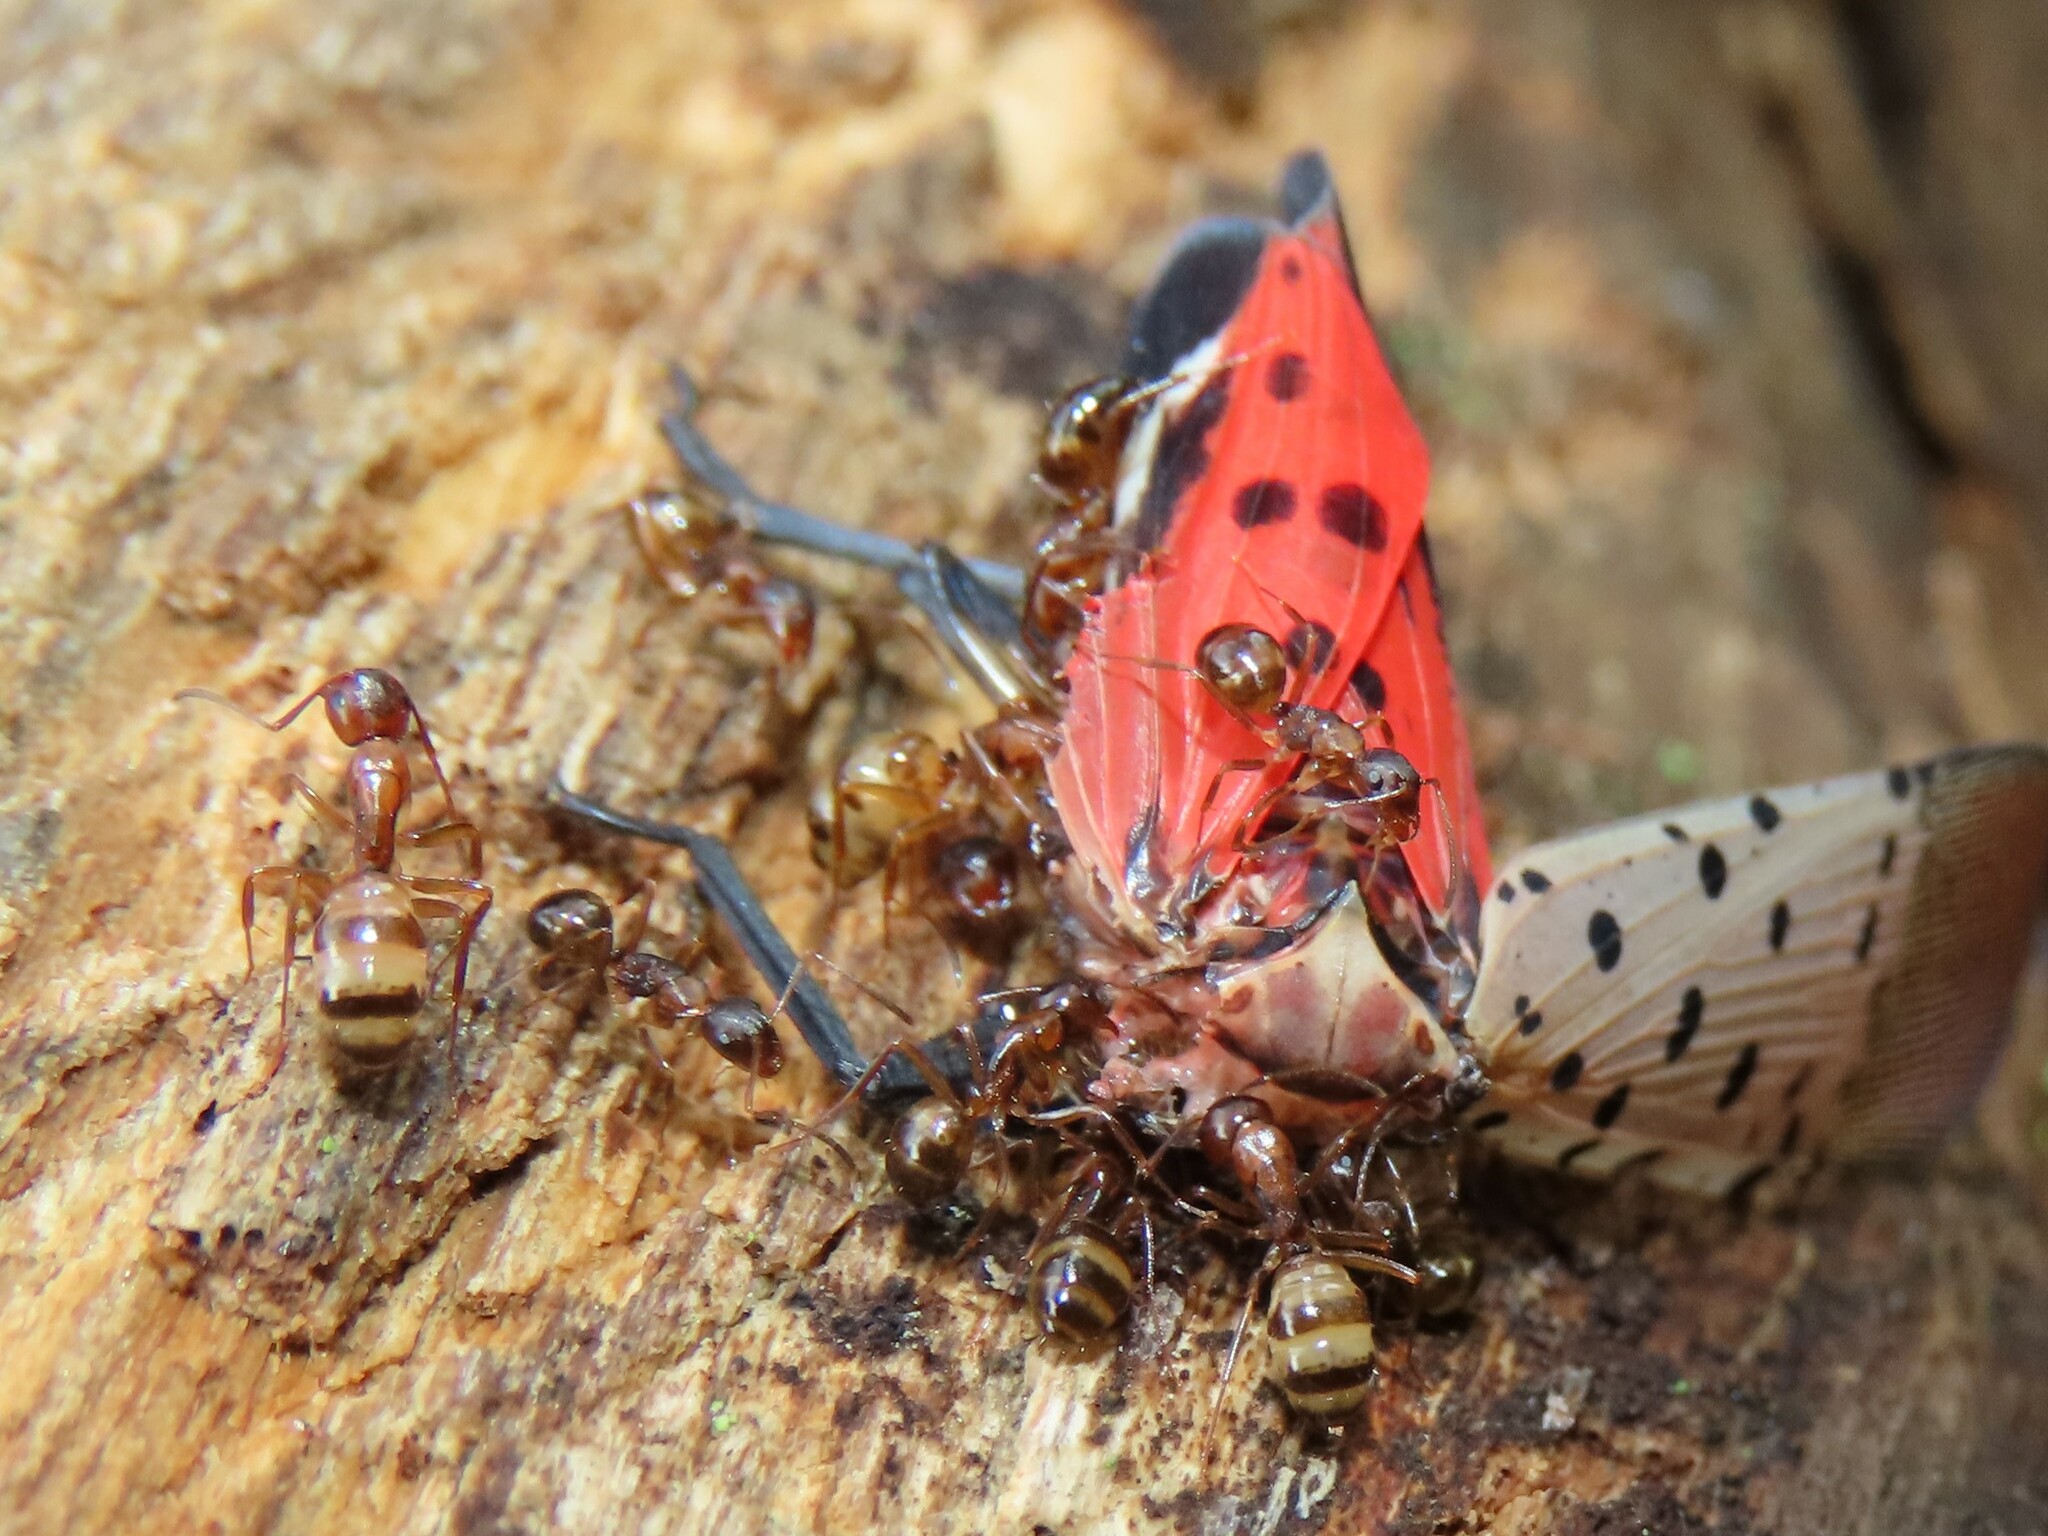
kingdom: Animalia
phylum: Arthropoda
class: Insecta
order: Hymenoptera
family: Formicidae
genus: Camponotus
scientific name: Camponotus subbarbatus
